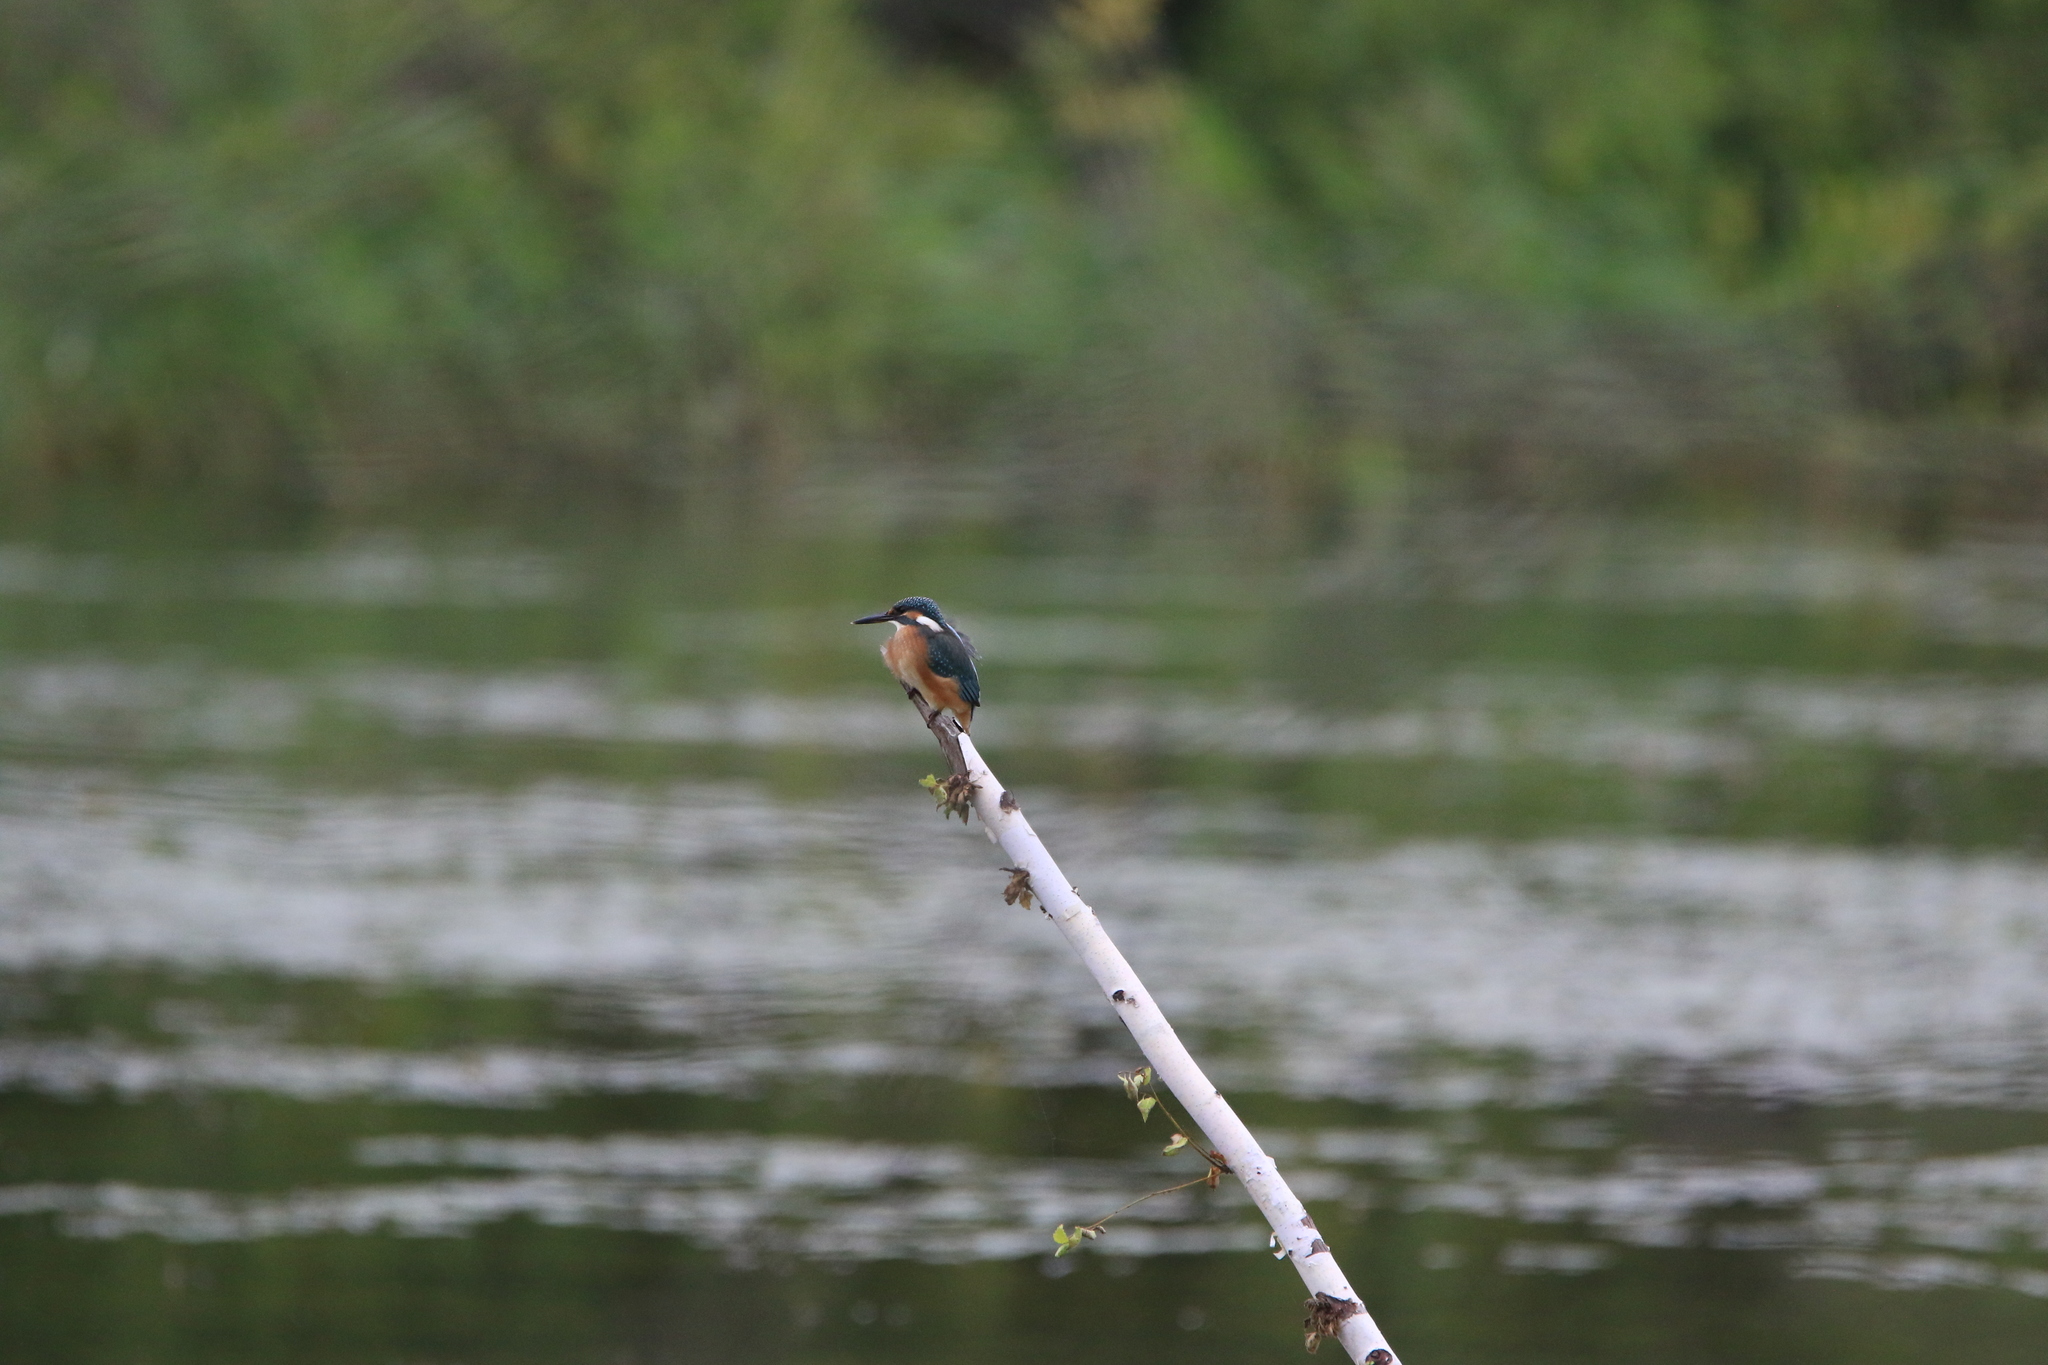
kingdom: Animalia
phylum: Chordata
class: Aves
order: Coraciiformes
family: Alcedinidae
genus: Alcedo
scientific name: Alcedo atthis
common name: Common kingfisher
